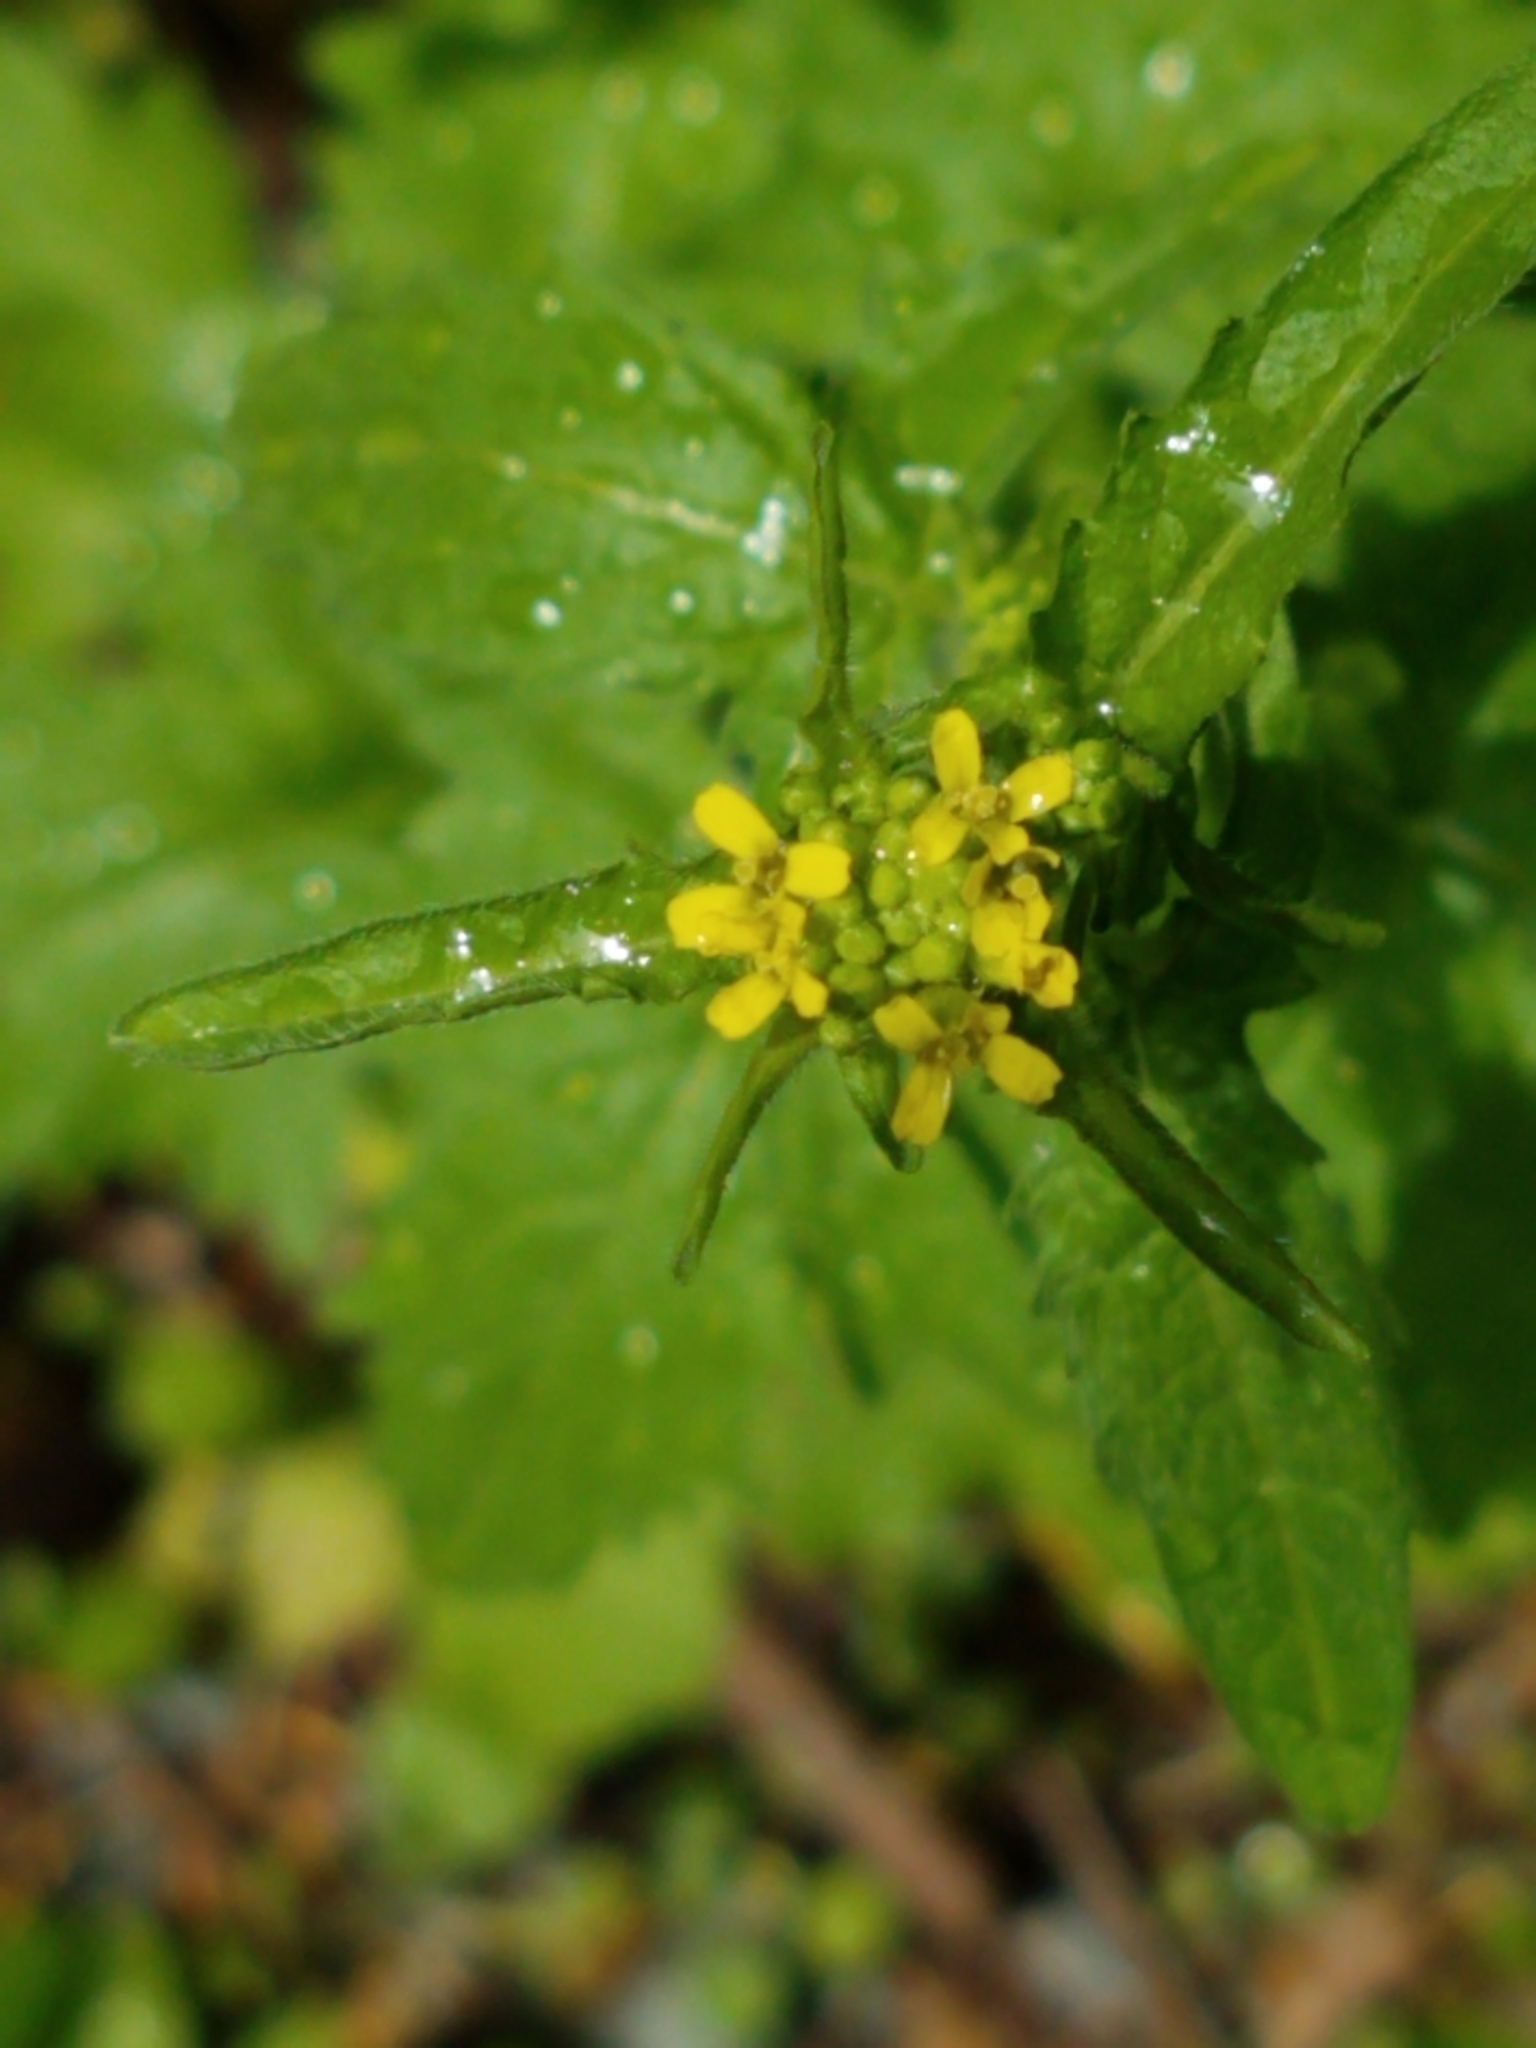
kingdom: Plantae
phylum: Tracheophyta
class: Magnoliopsida
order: Brassicales
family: Brassicaceae
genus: Sisymbrium
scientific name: Sisymbrium officinale
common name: Hedge mustard
